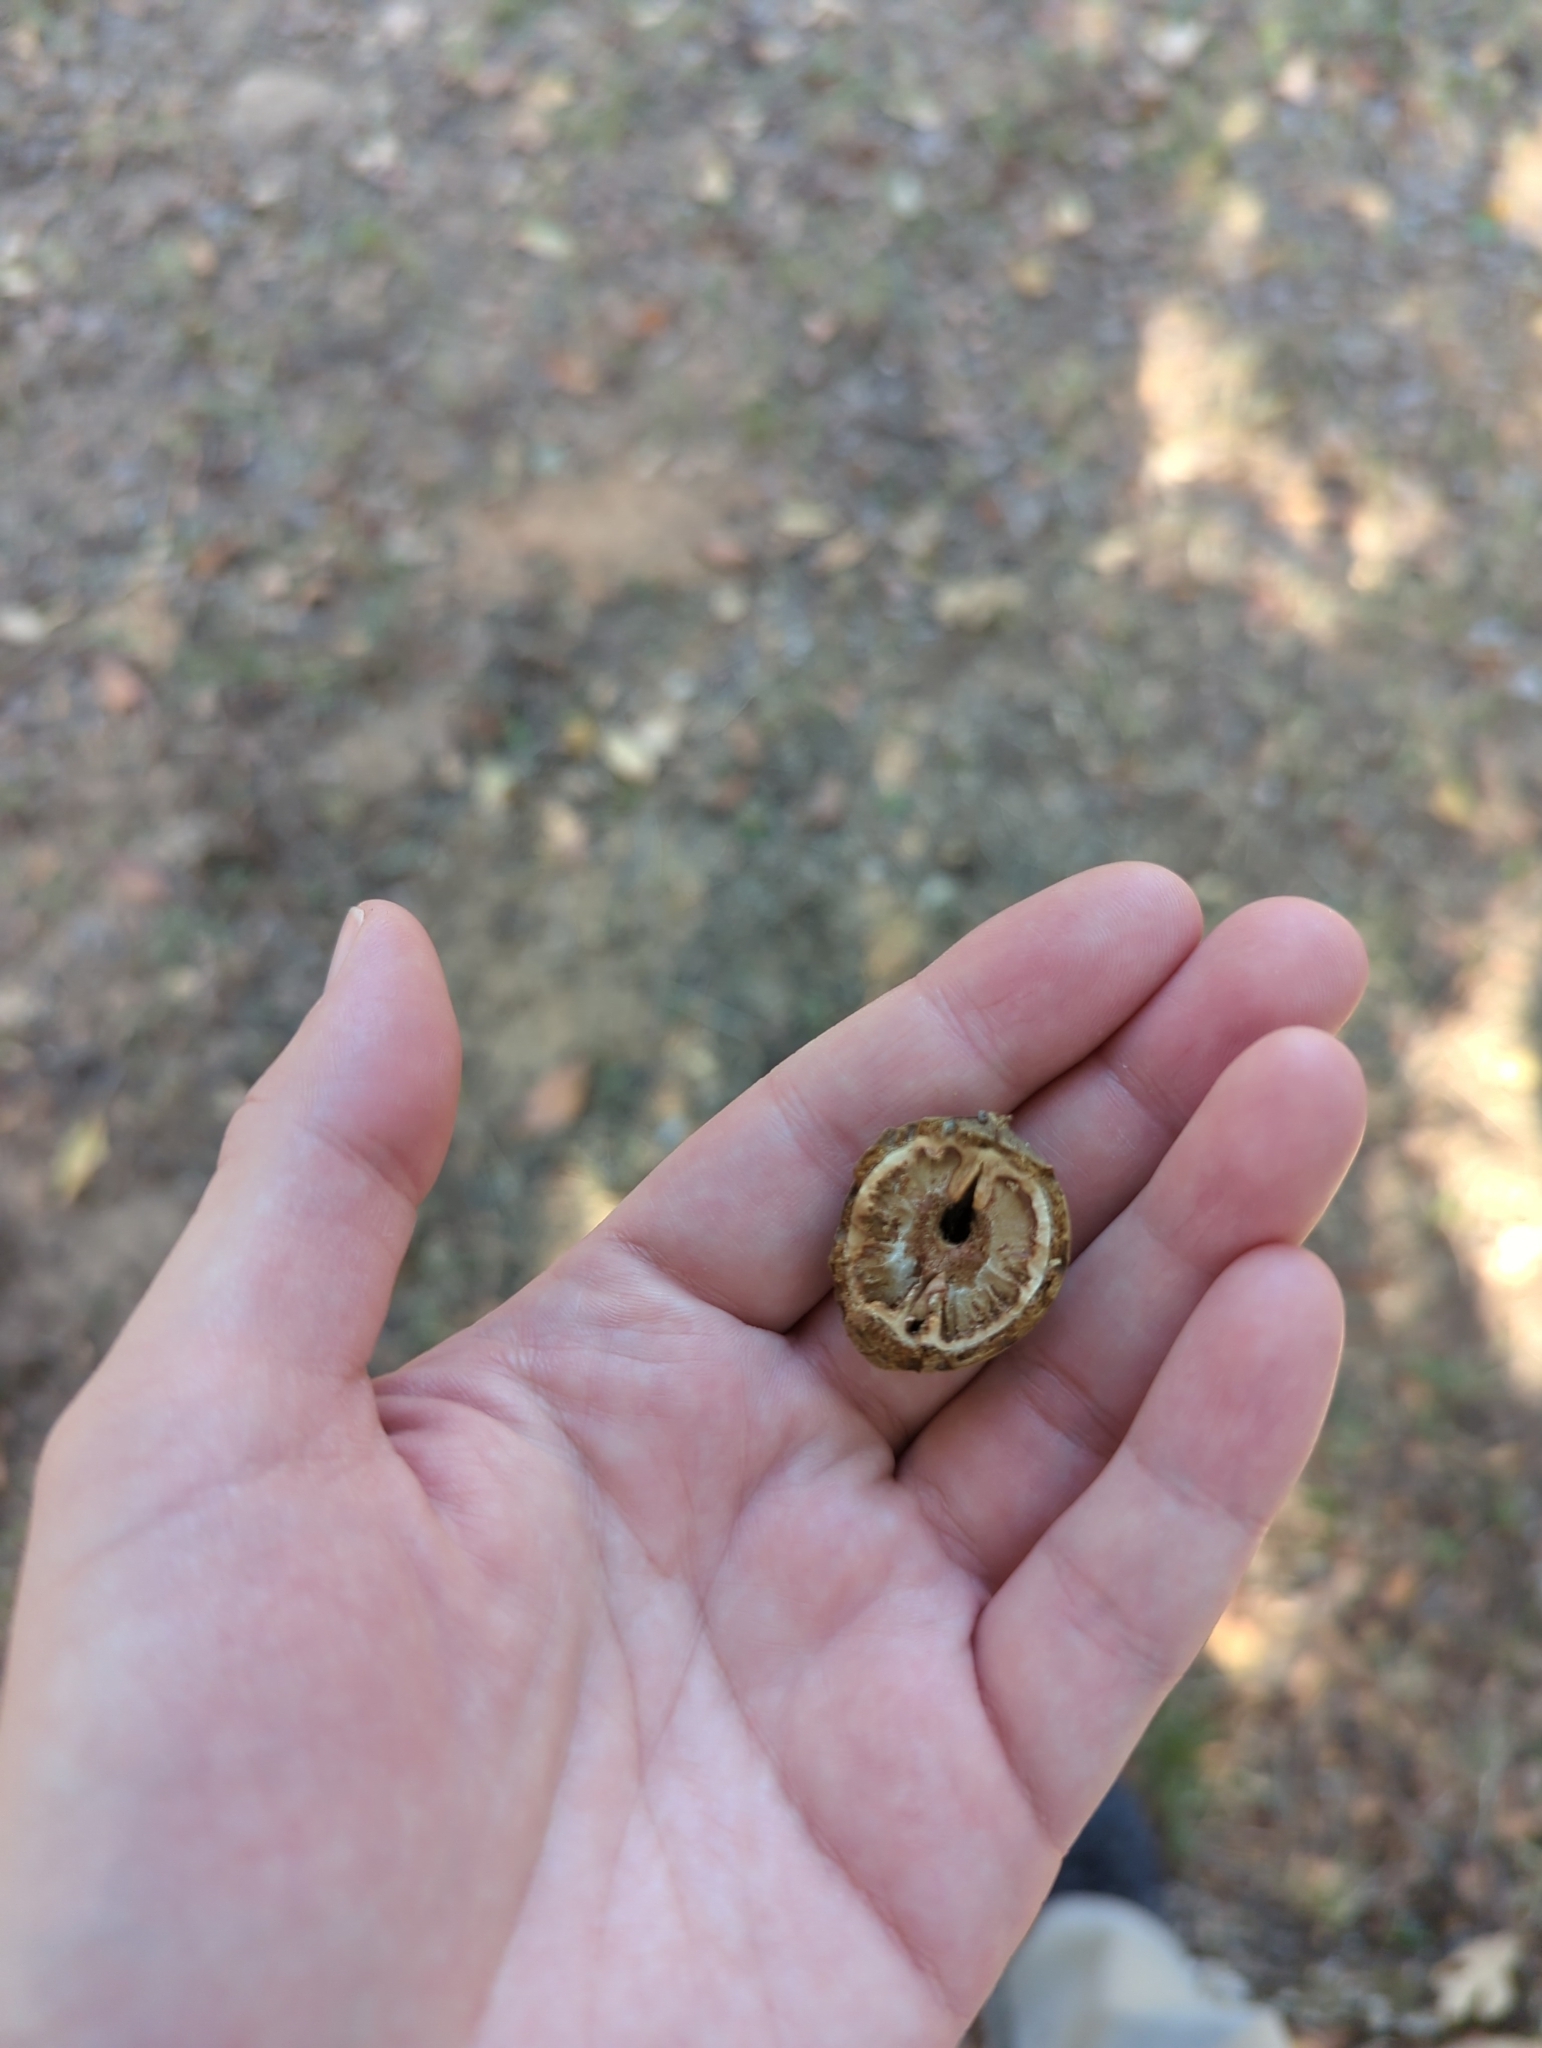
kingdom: Plantae
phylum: Tracheophyta
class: Magnoliopsida
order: Fagales
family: Juglandaceae
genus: Carya
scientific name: Carya texana
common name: Black hickory
